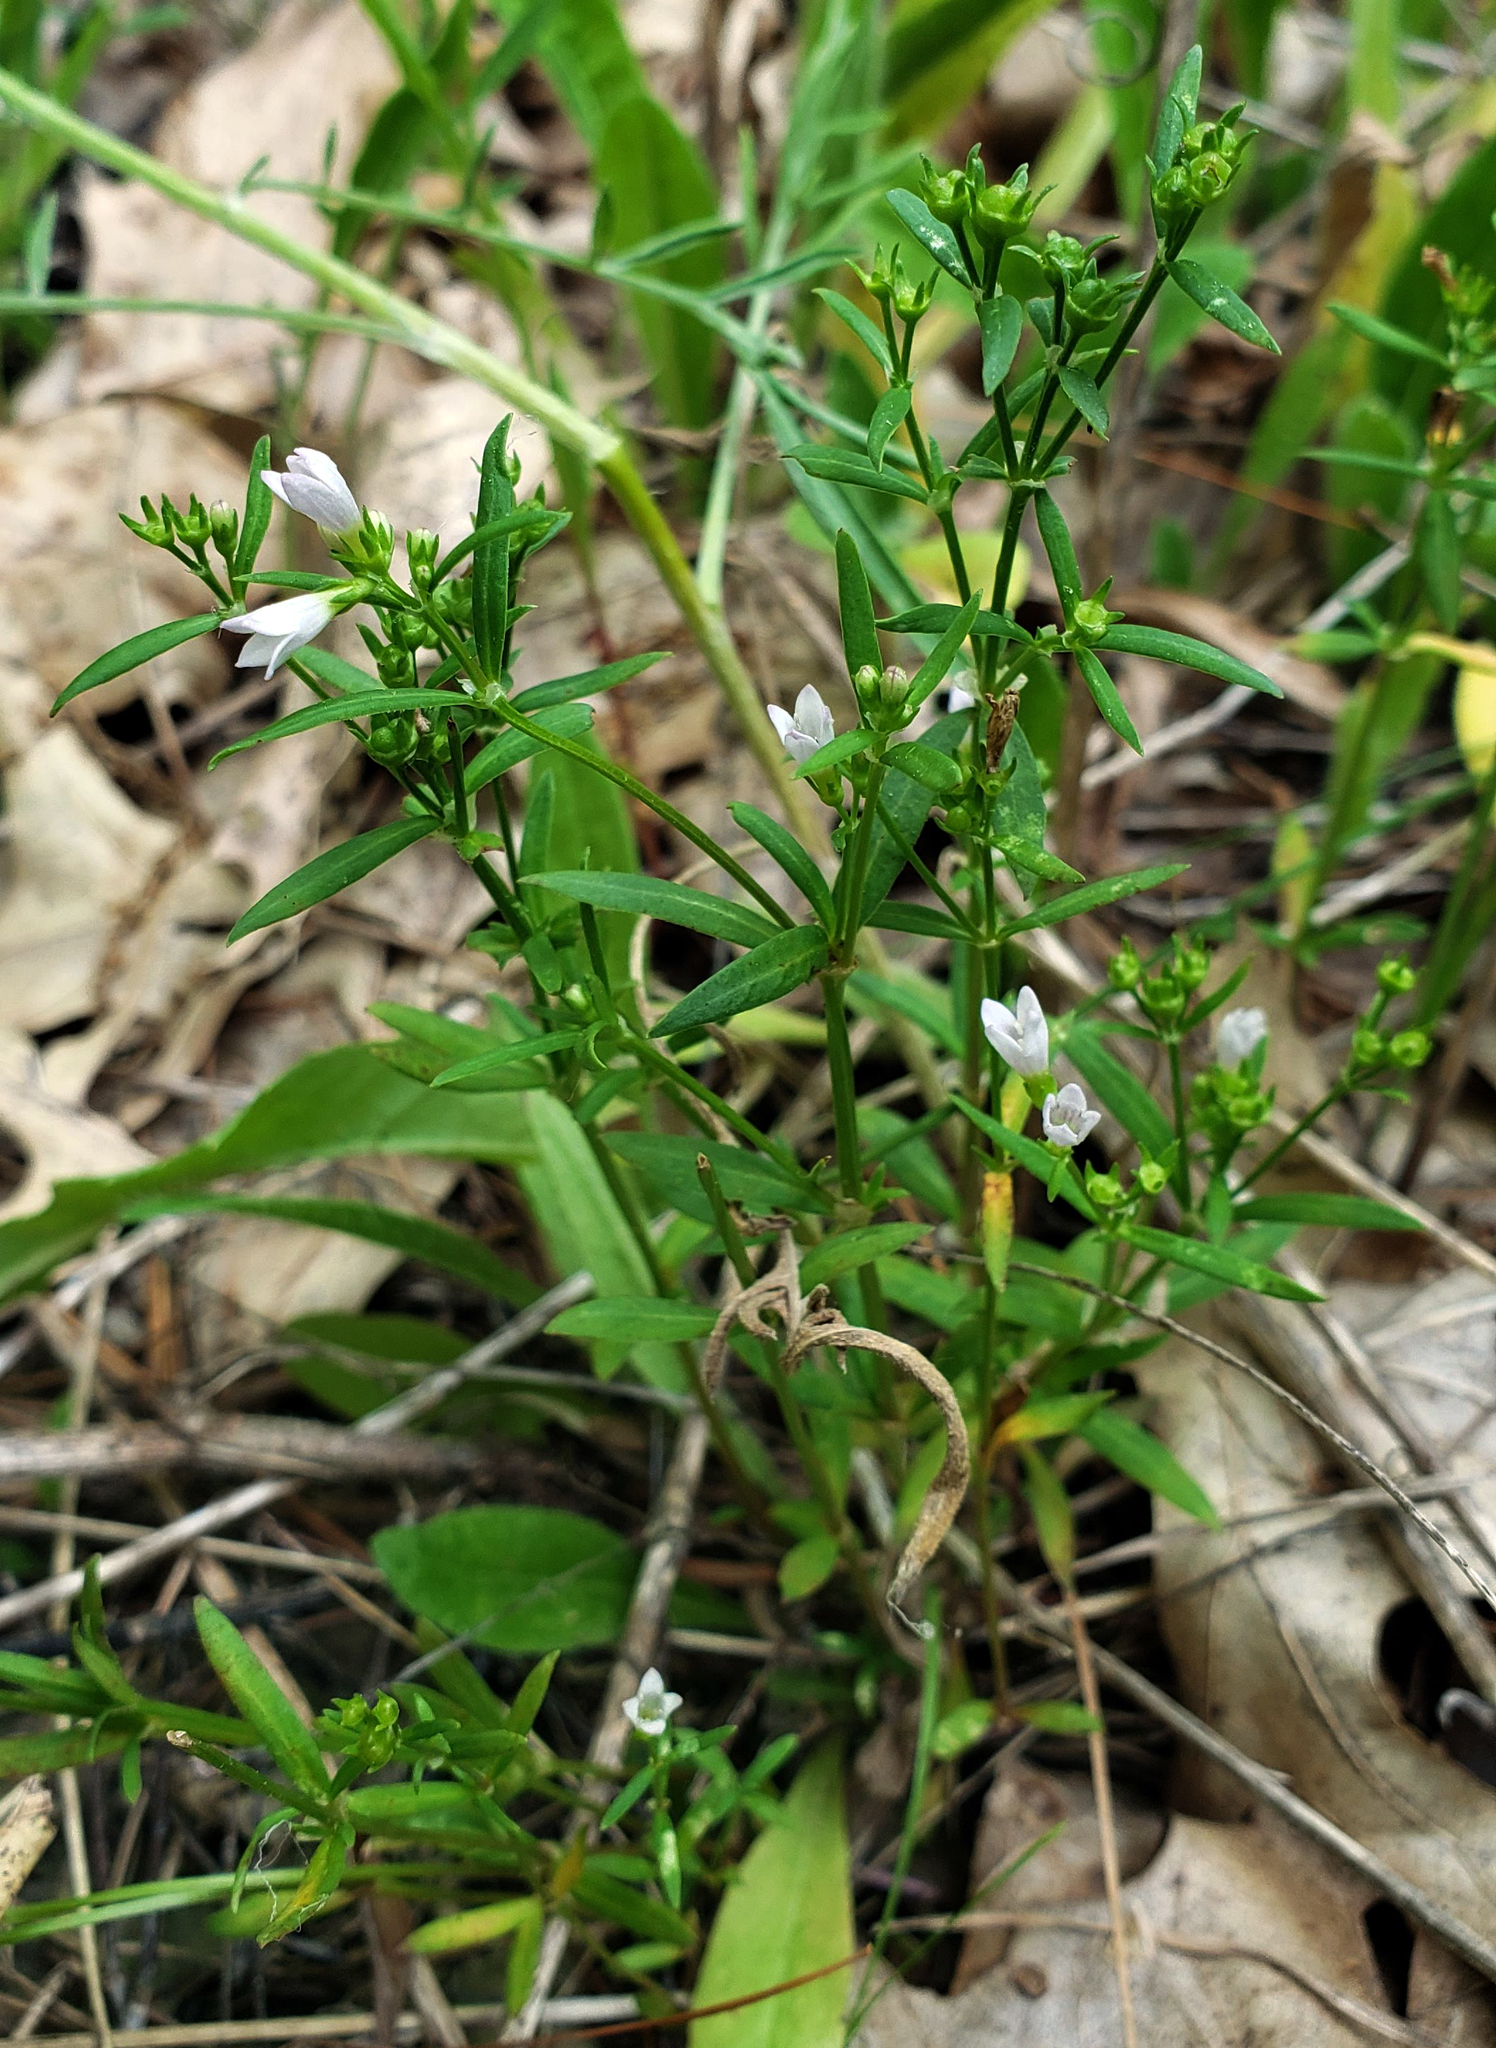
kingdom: Plantae
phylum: Tracheophyta
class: Magnoliopsida
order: Gentianales
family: Rubiaceae
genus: Houstonia
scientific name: Houstonia longifolia
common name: Long-leaved bluets
